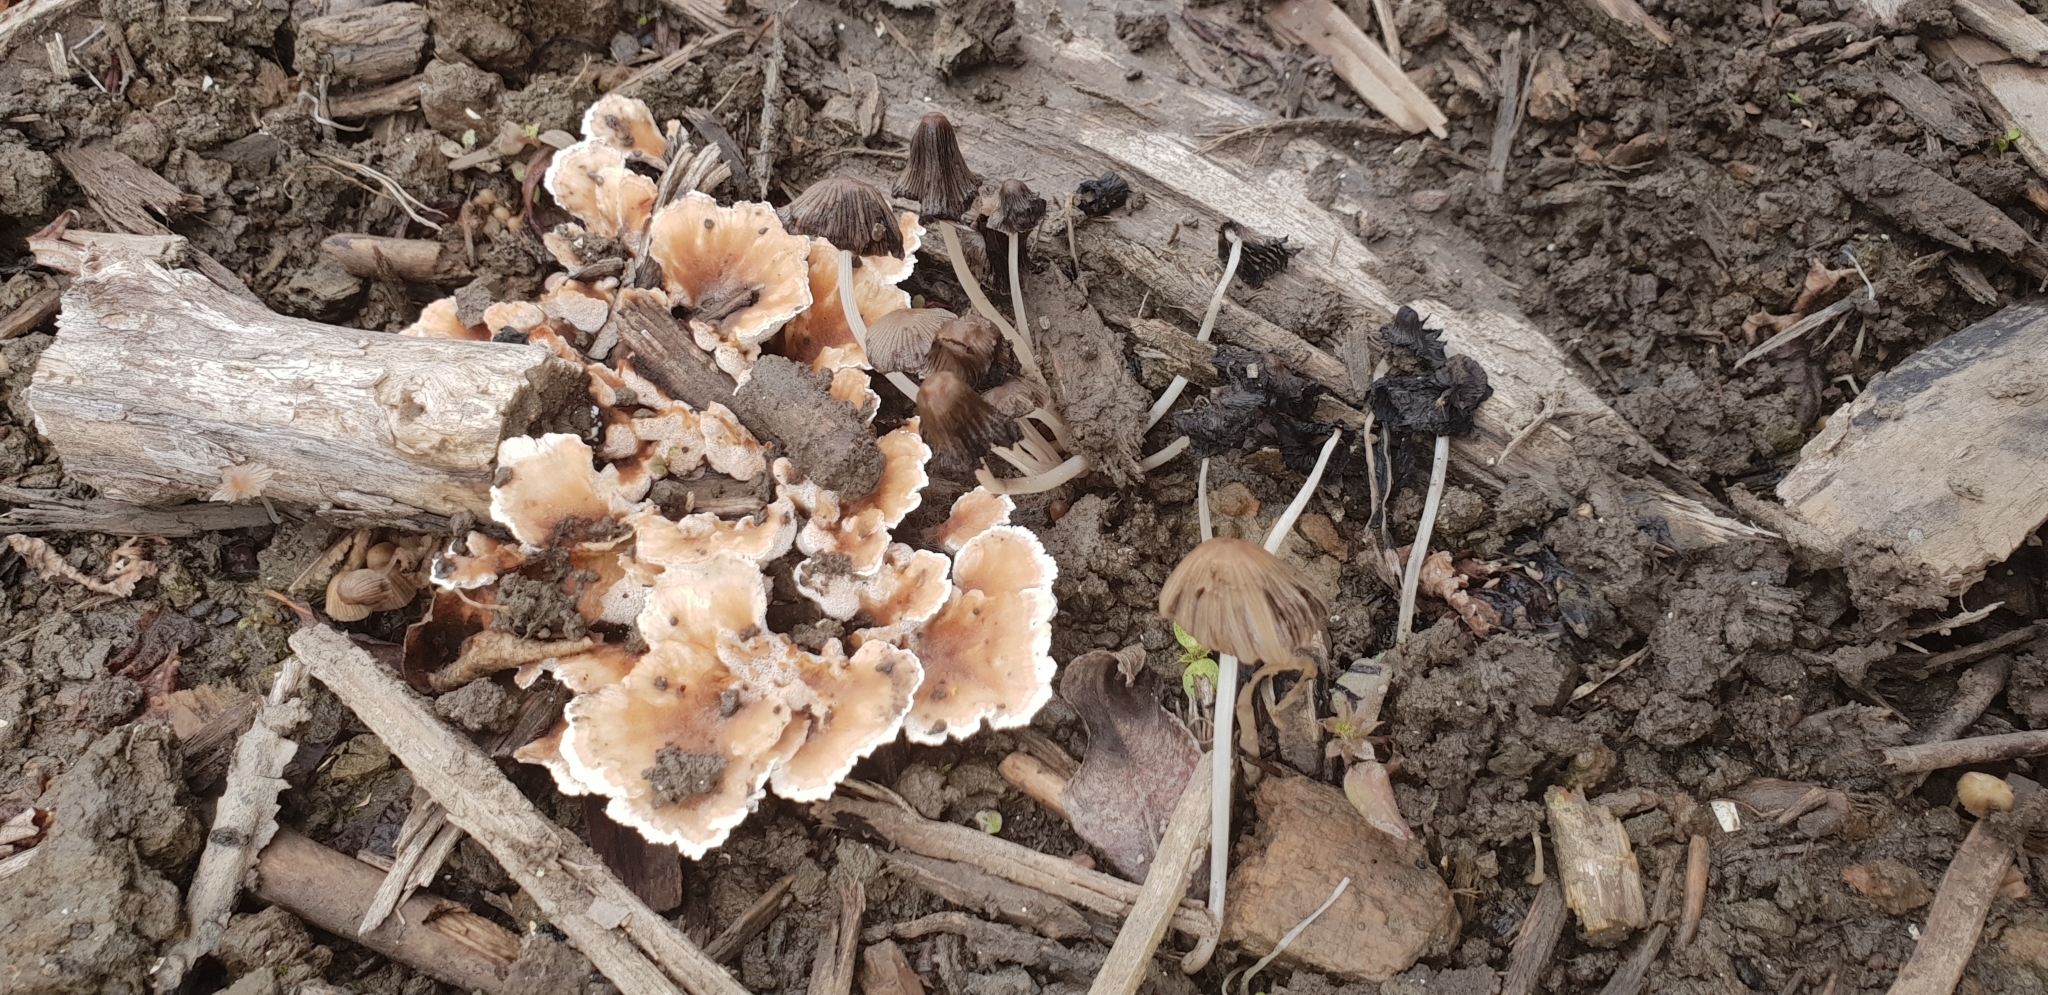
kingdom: Fungi
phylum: Basidiomycota
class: Agaricomycetes
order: Polyporales
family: Podoscyphaceae
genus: Abortiporus
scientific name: Abortiporus biennis
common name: Blushing rosette
